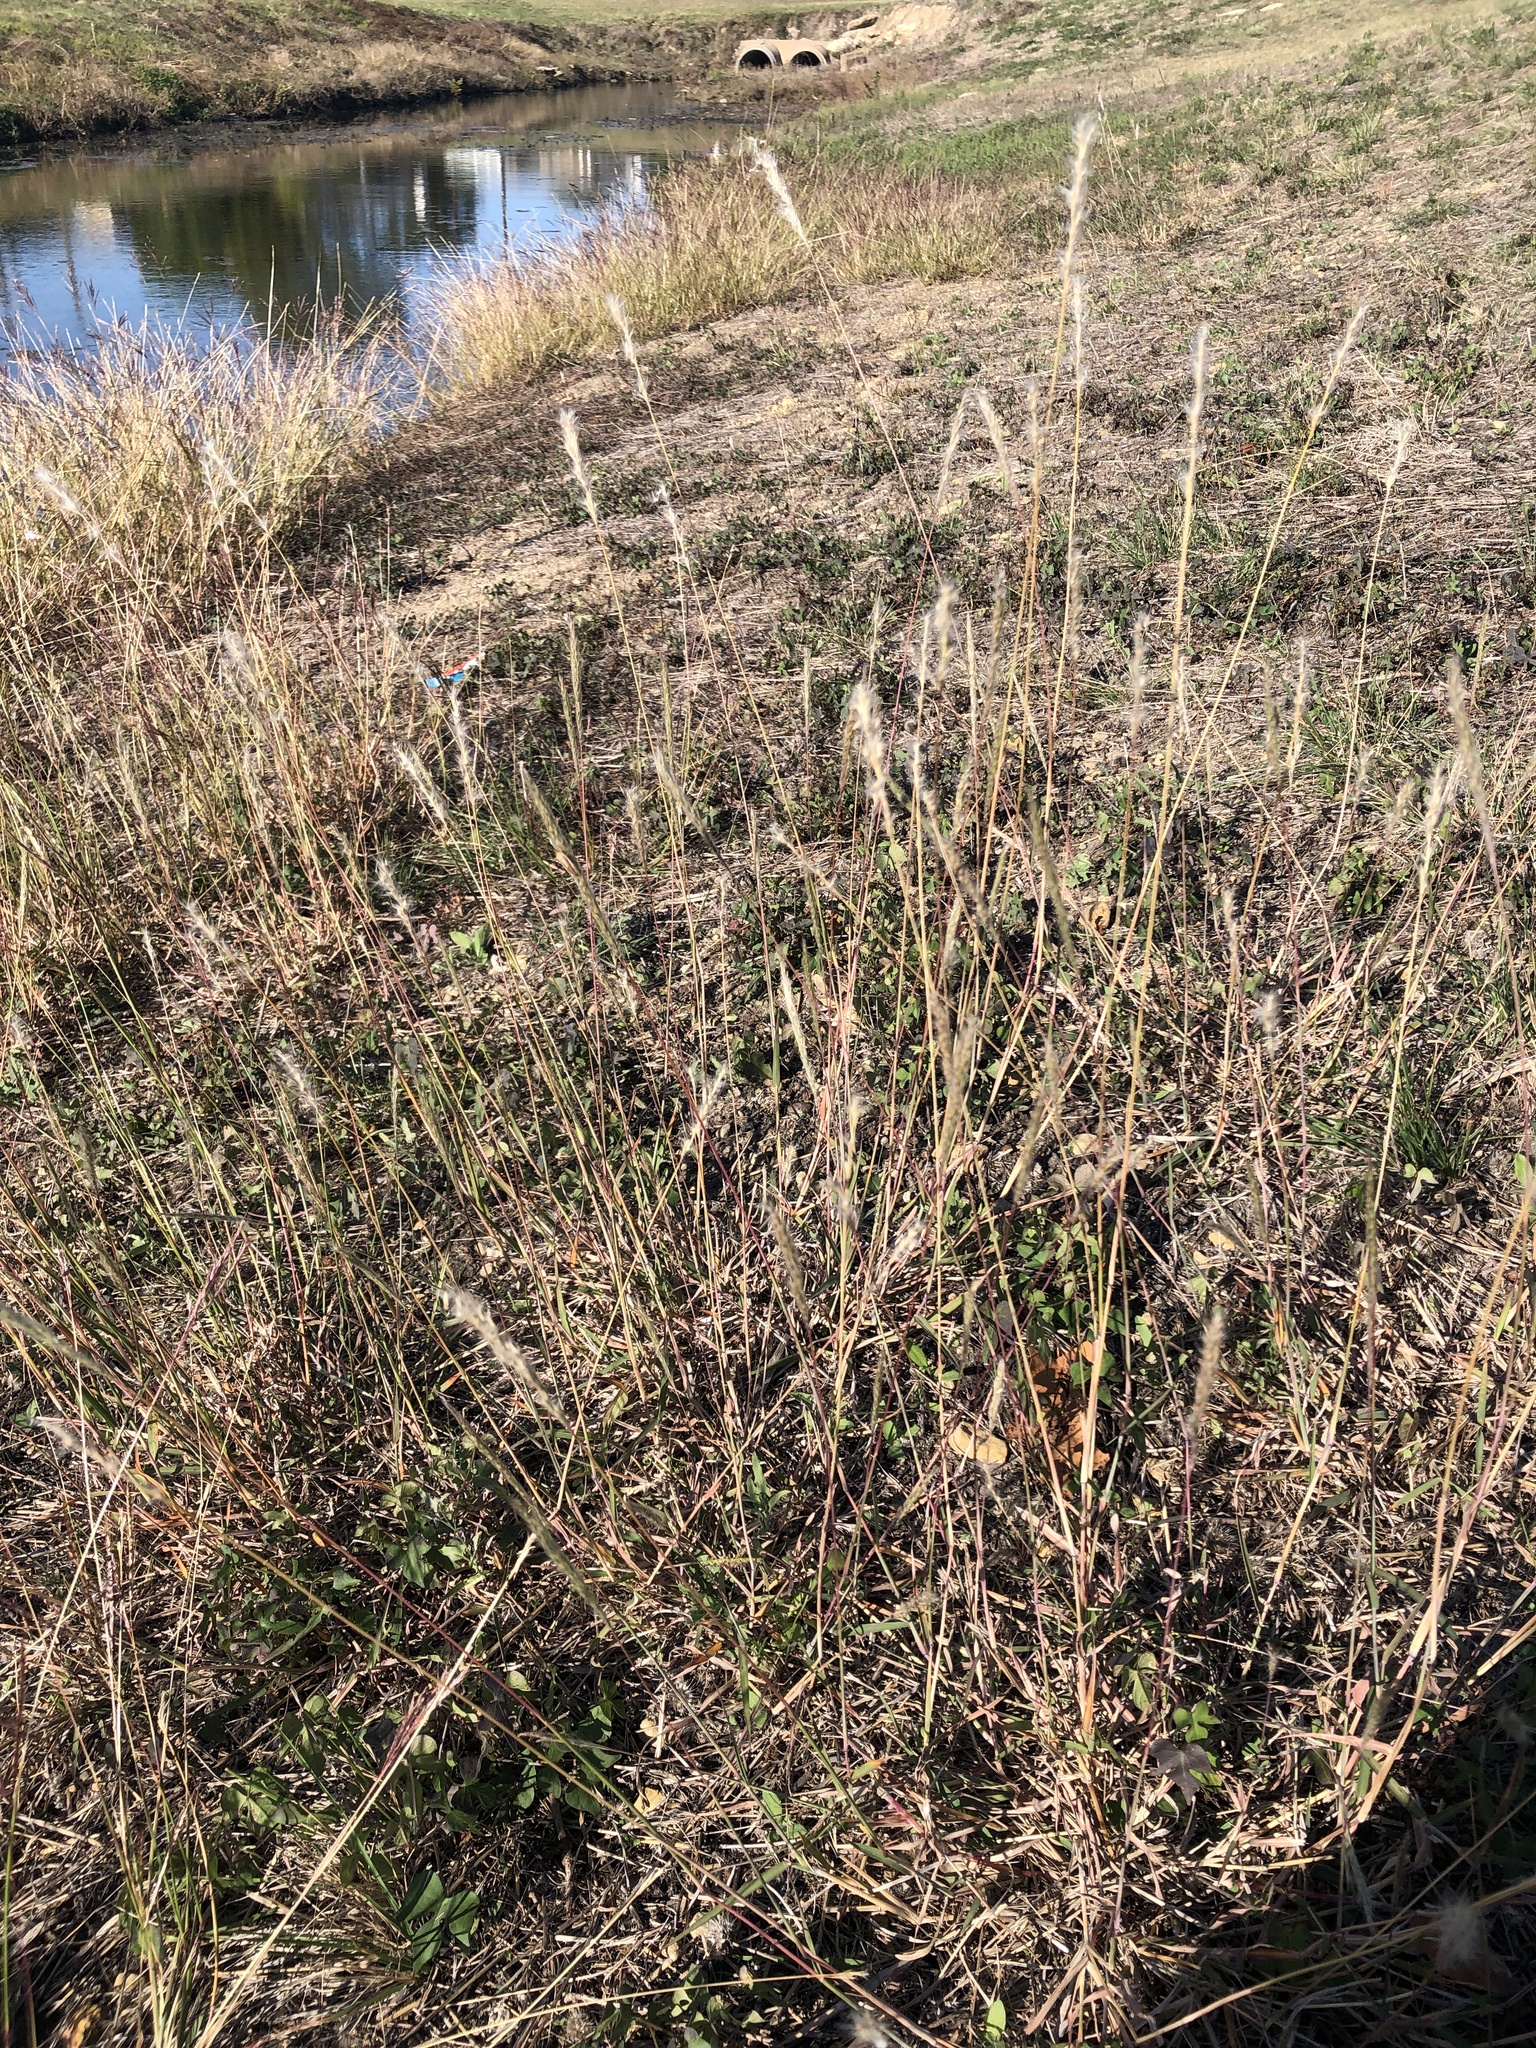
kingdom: Plantae
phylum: Tracheophyta
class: Liliopsida
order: Poales
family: Poaceae
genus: Bothriochloa
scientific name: Bothriochloa torreyana
